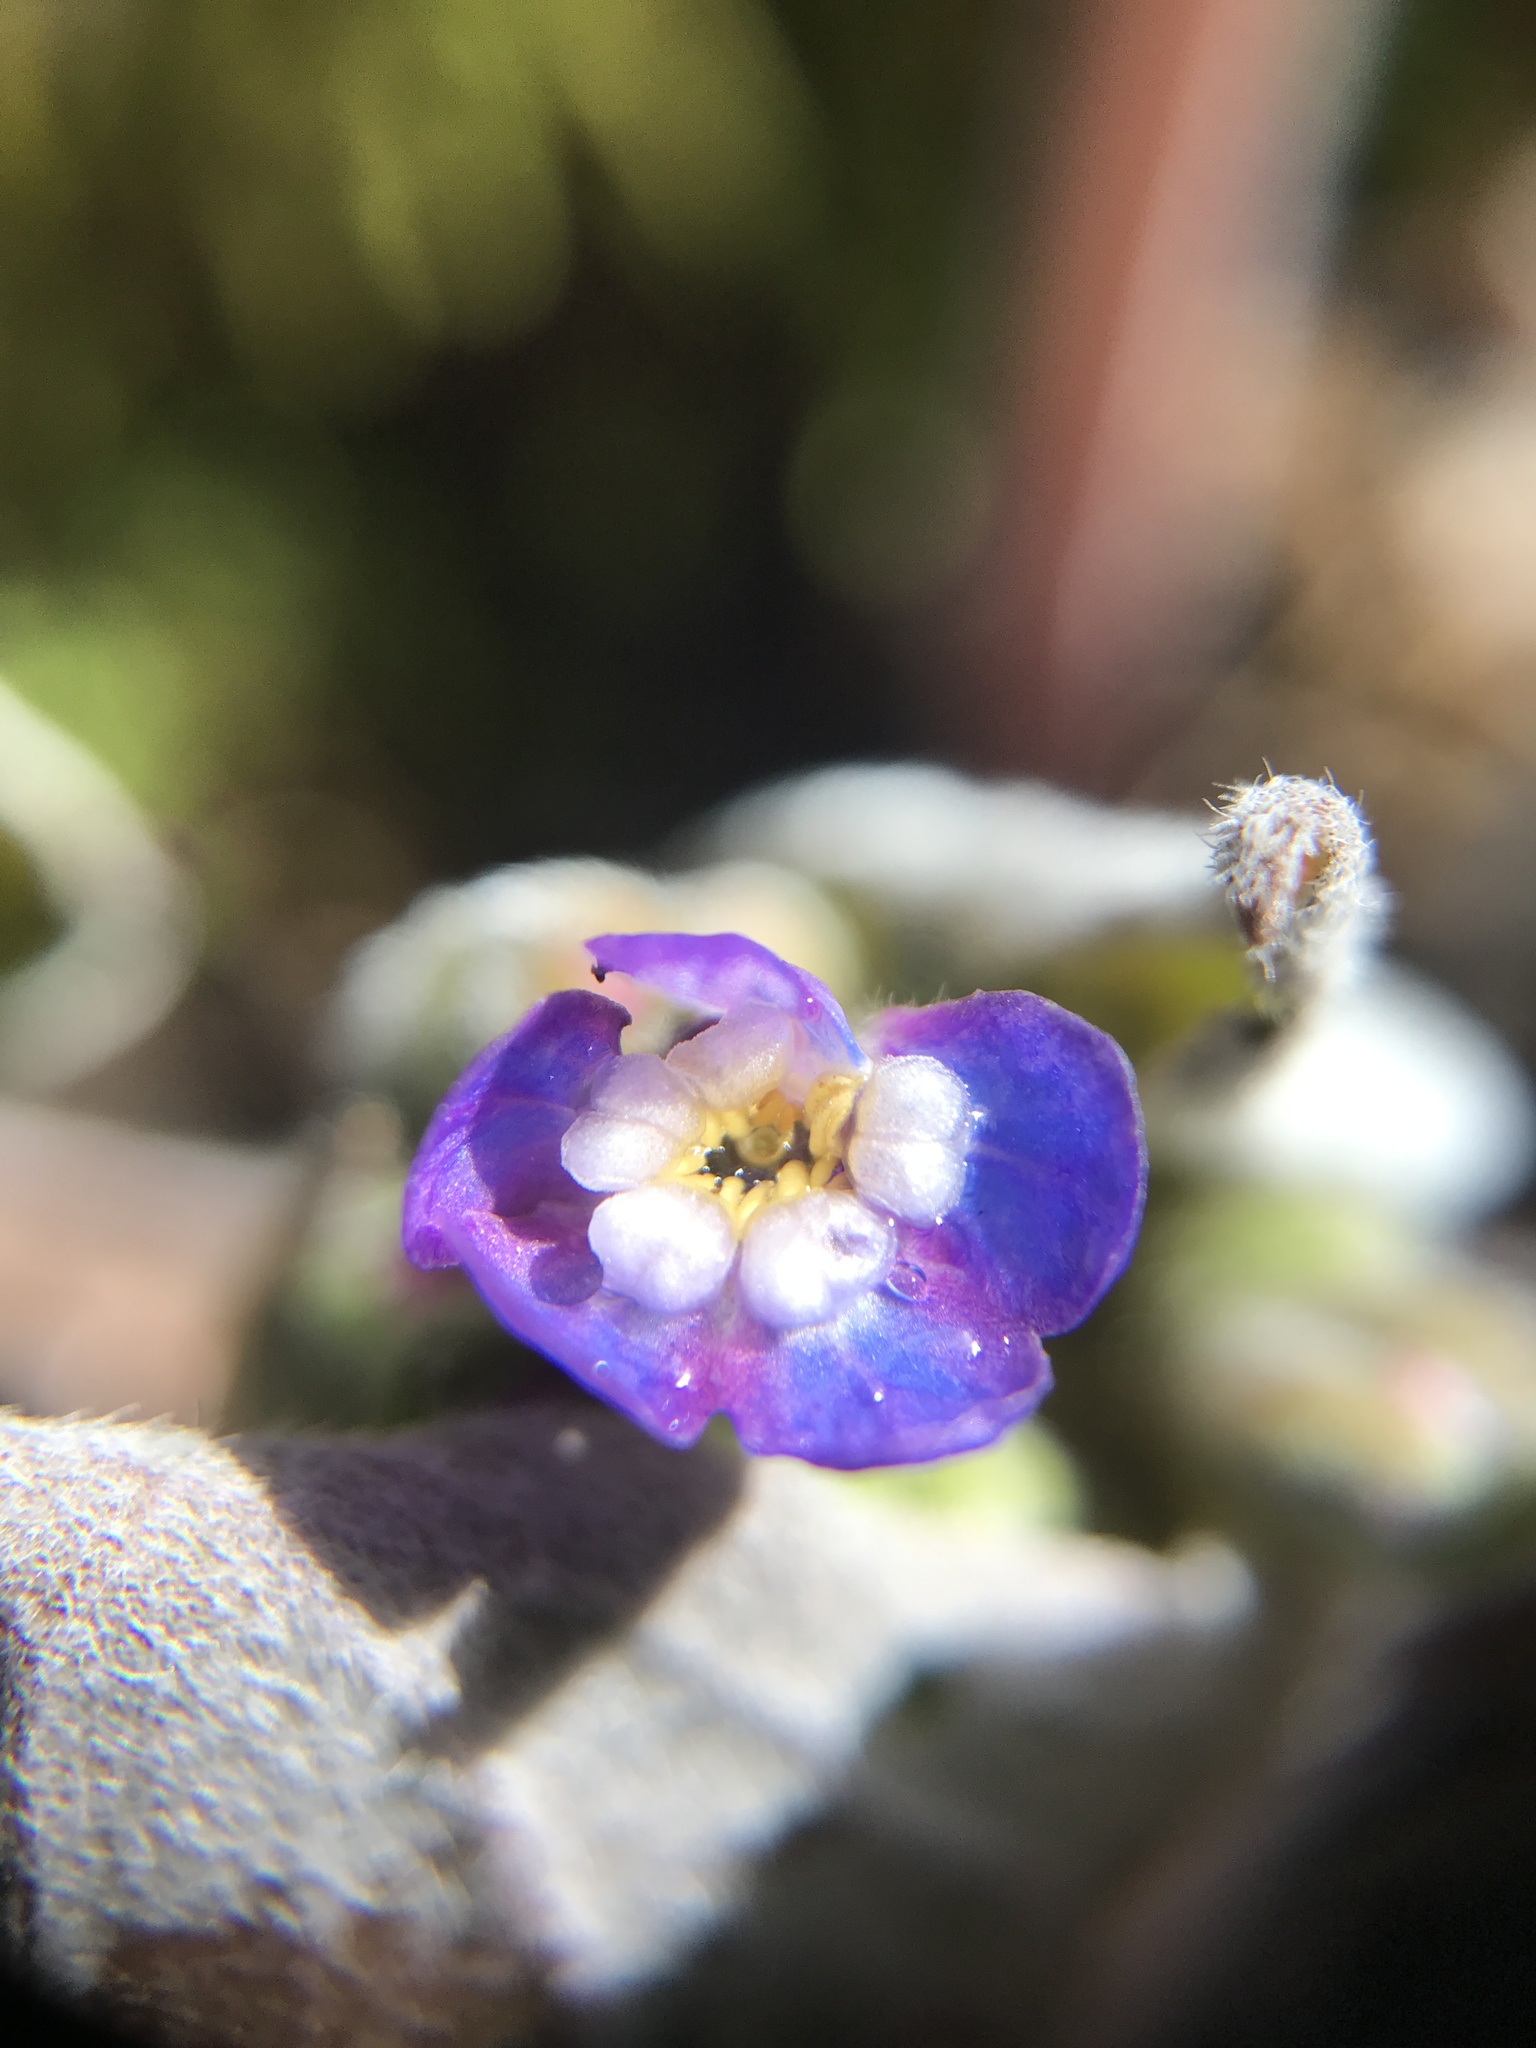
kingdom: Plantae
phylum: Tracheophyta
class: Magnoliopsida
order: Boraginales
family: Boraginaceae
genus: Adelinia
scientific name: Adelinia grande
